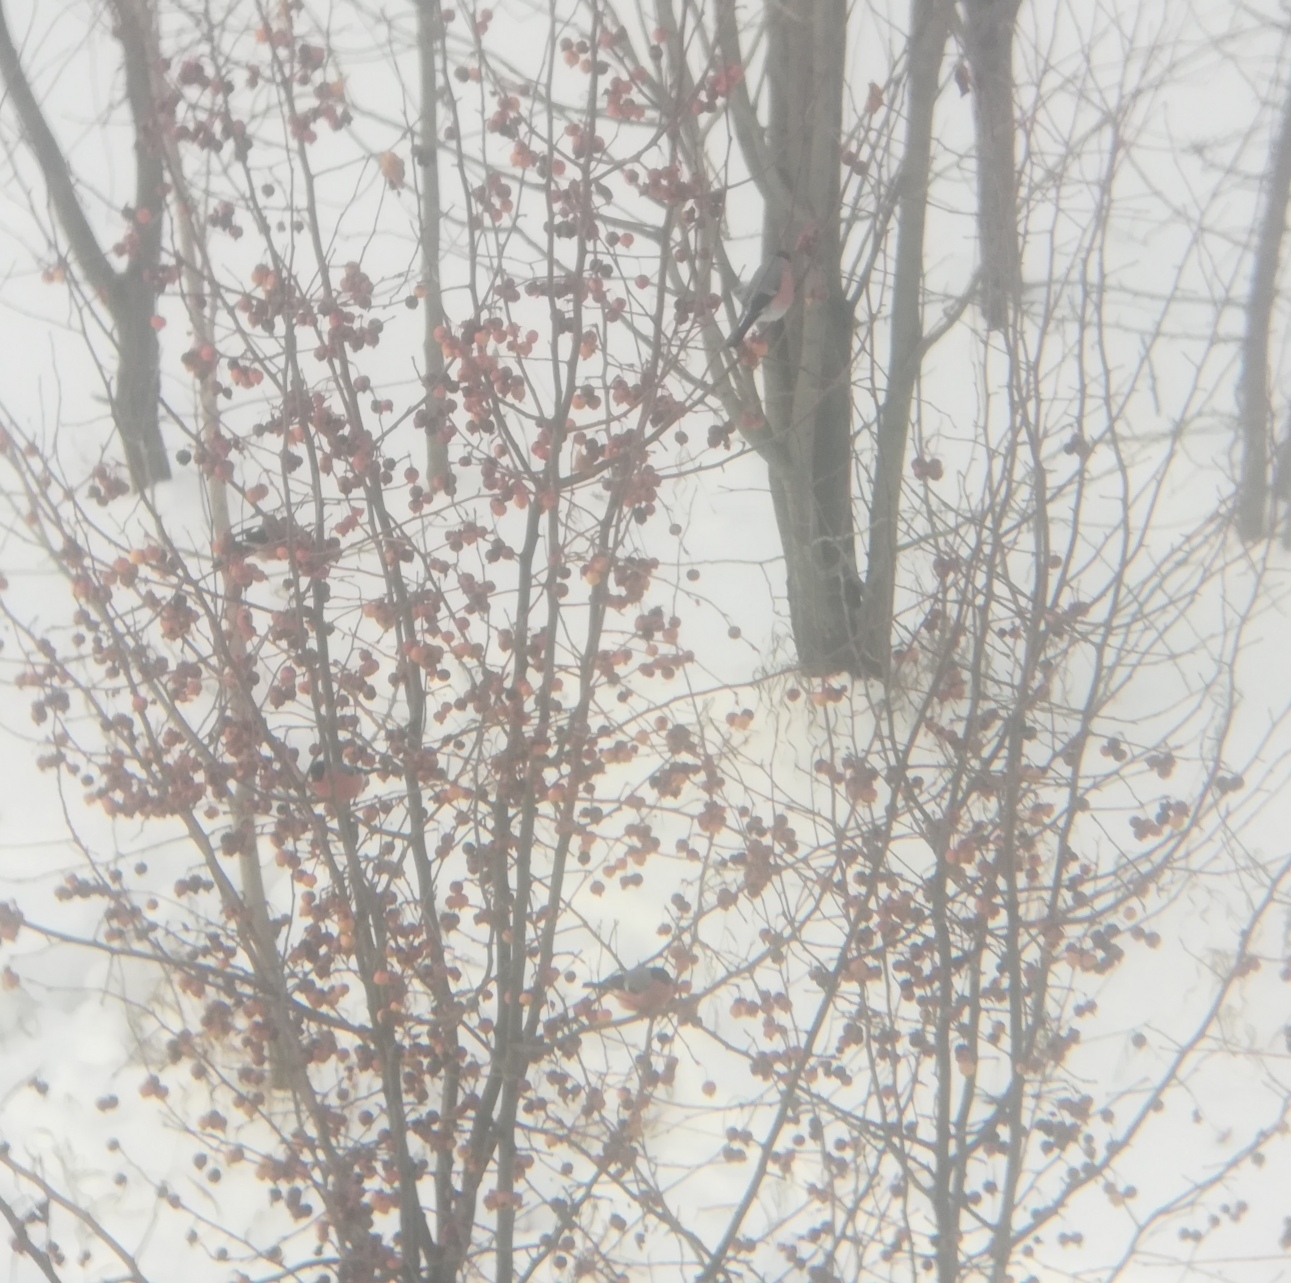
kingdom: Animalia
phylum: Chordata
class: Aves
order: Passeriformes
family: Fringillidae
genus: Pyrrhula
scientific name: Pyrrhula pyrrhula
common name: Eurasian bullfinch
